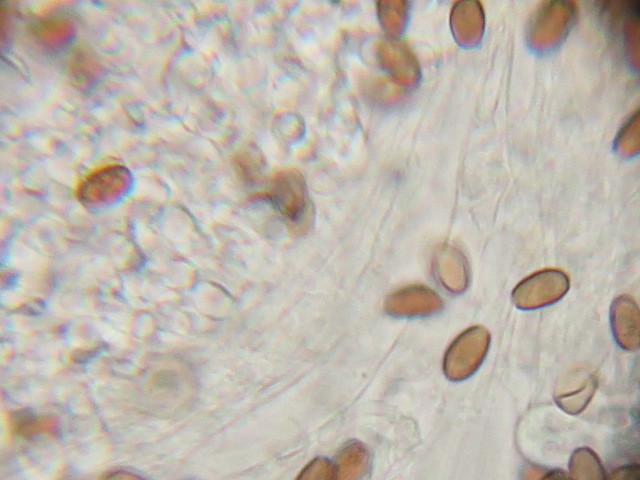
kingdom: Fungi
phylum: Basidiomycota
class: Agaricomycetes
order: Agaricales
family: Psathyrellaceae
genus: Candolleomyces
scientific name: Candolleomyces candolleanus
